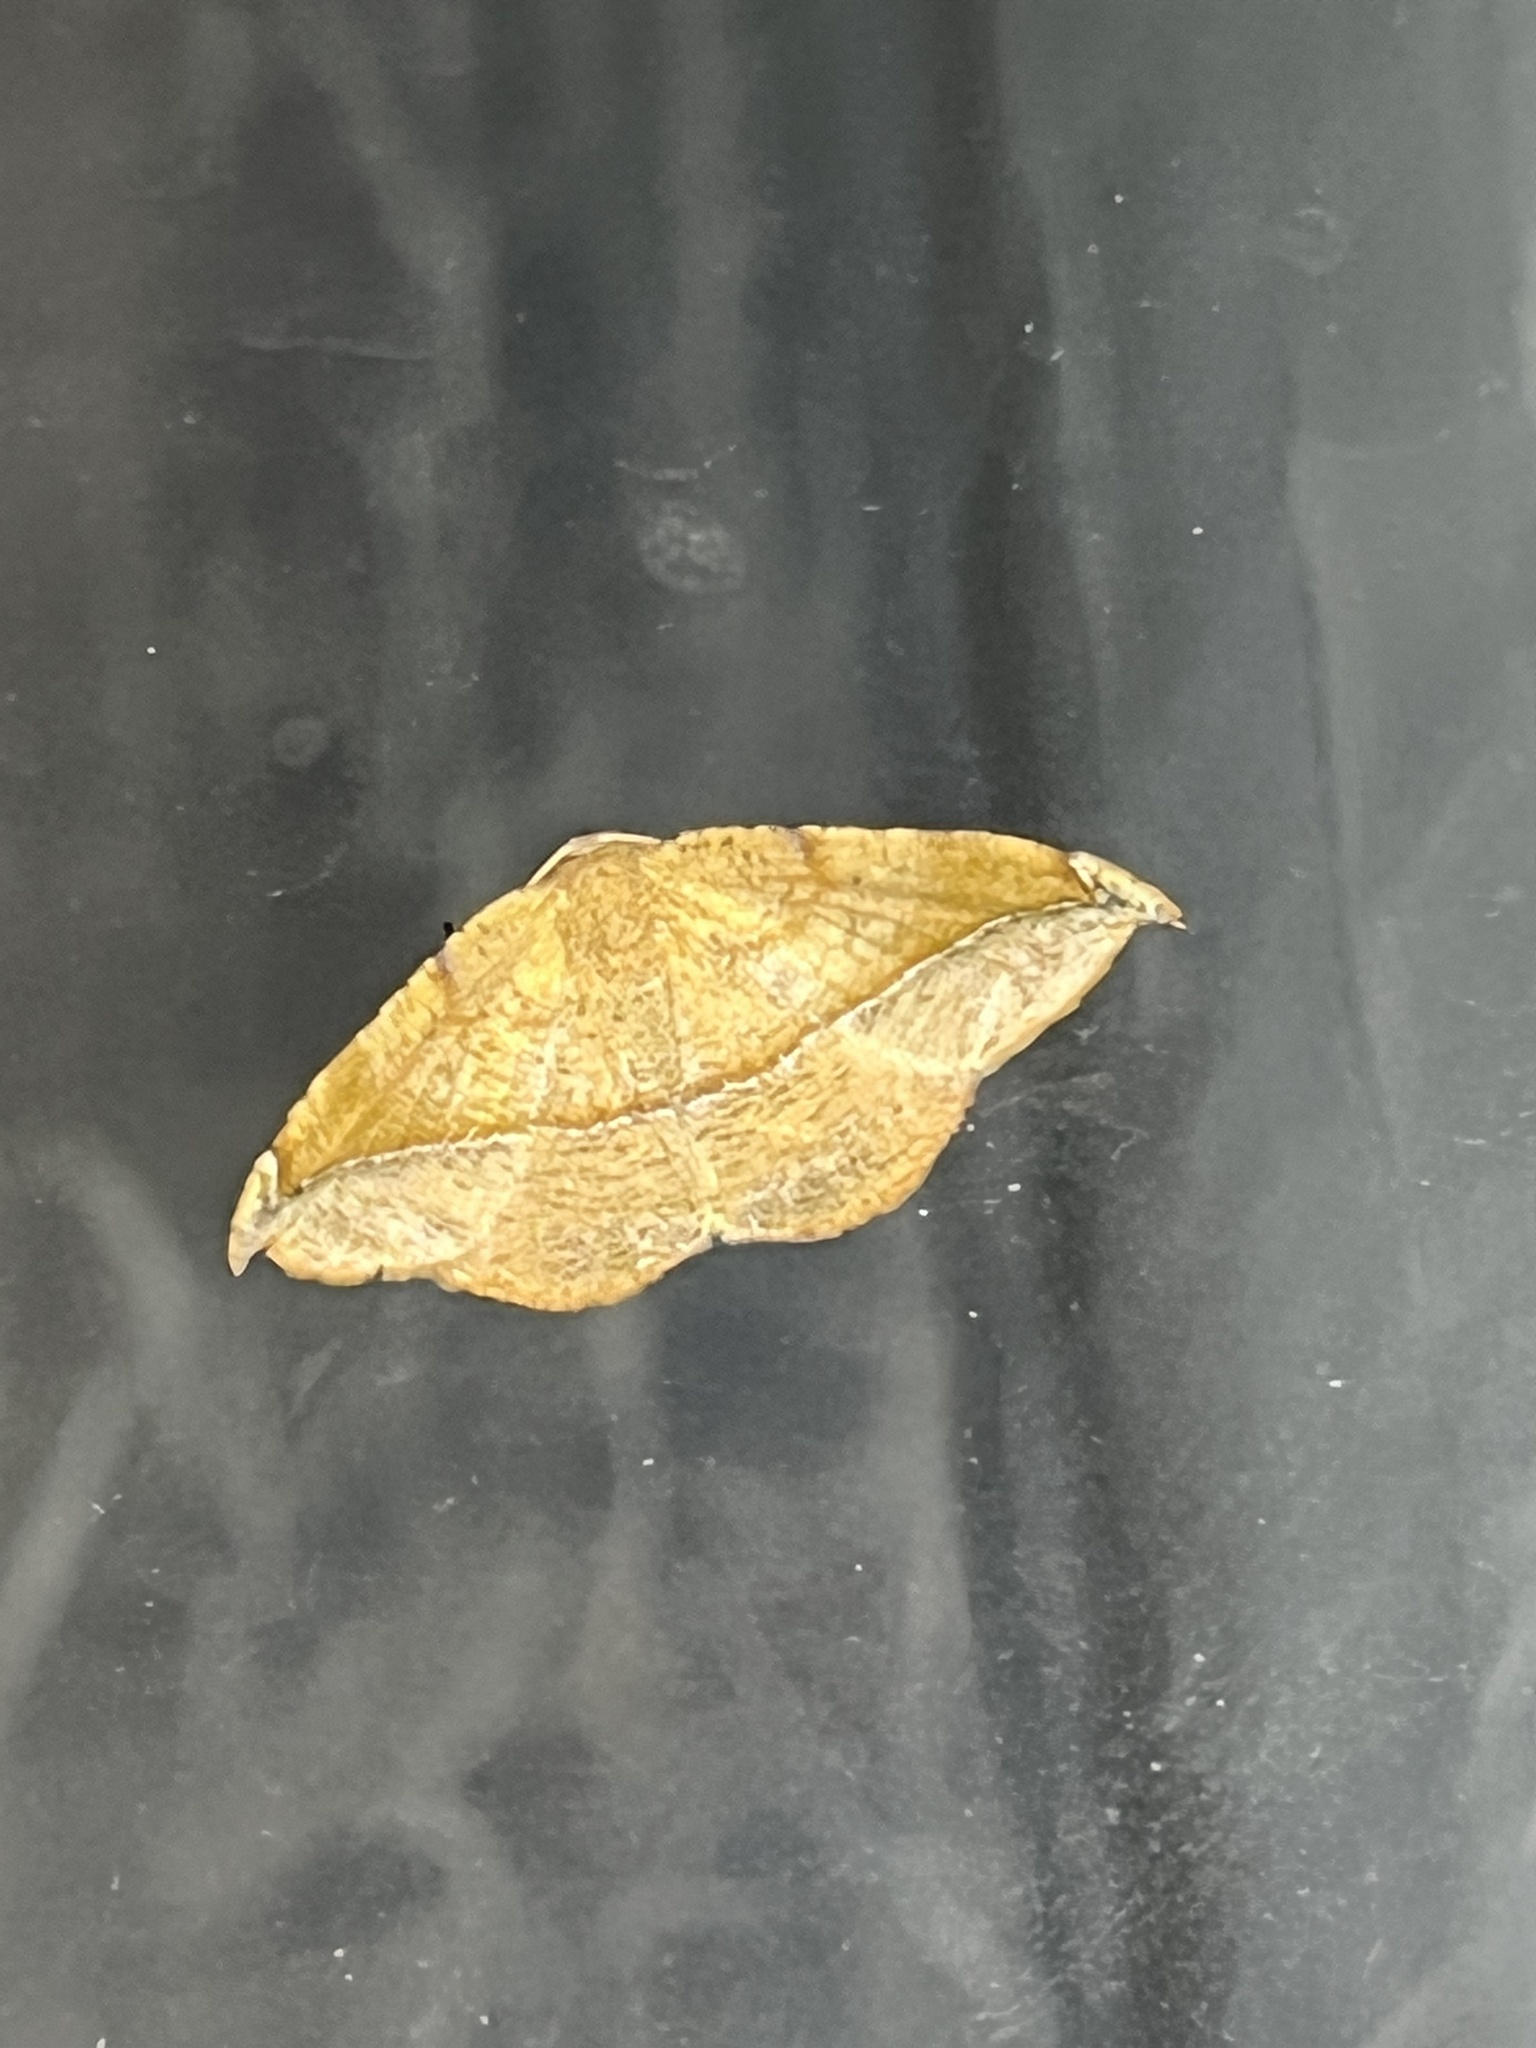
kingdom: Animalia
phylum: Arthropoda
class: Insecta
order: Lepidoptera
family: Geometridae
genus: Patalene
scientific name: Patalene olyzonaria
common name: Juniper geometer moth
